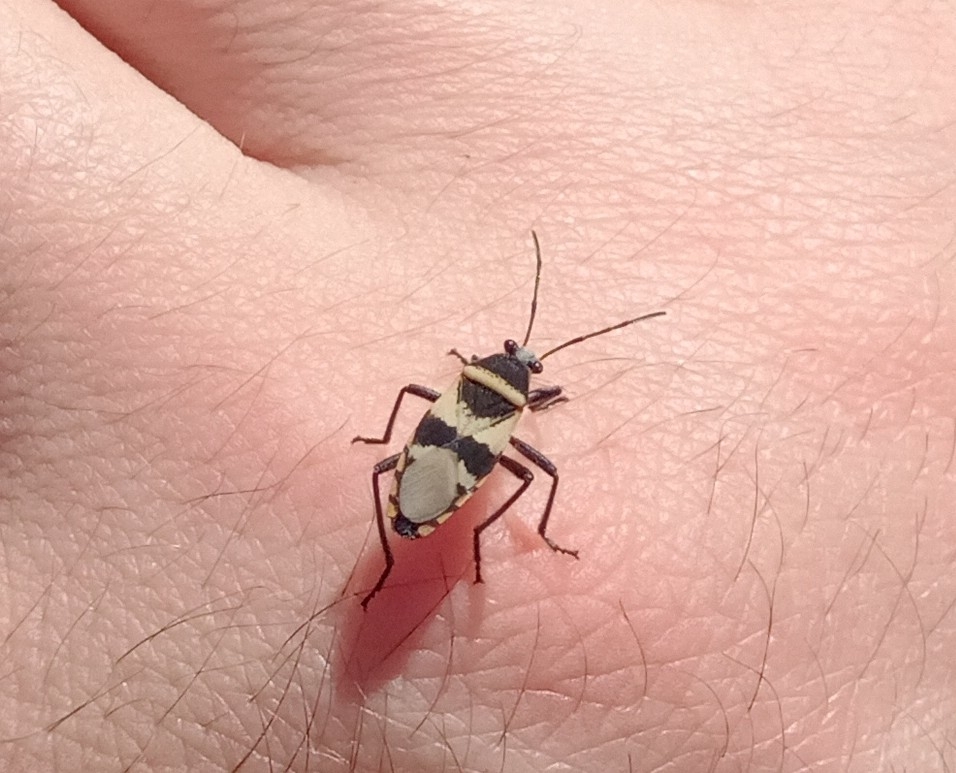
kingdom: Animalia
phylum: Arthropoda
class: Insecta
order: Hemiptera
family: Largidae
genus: Largus
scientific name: Largus fasciatus
